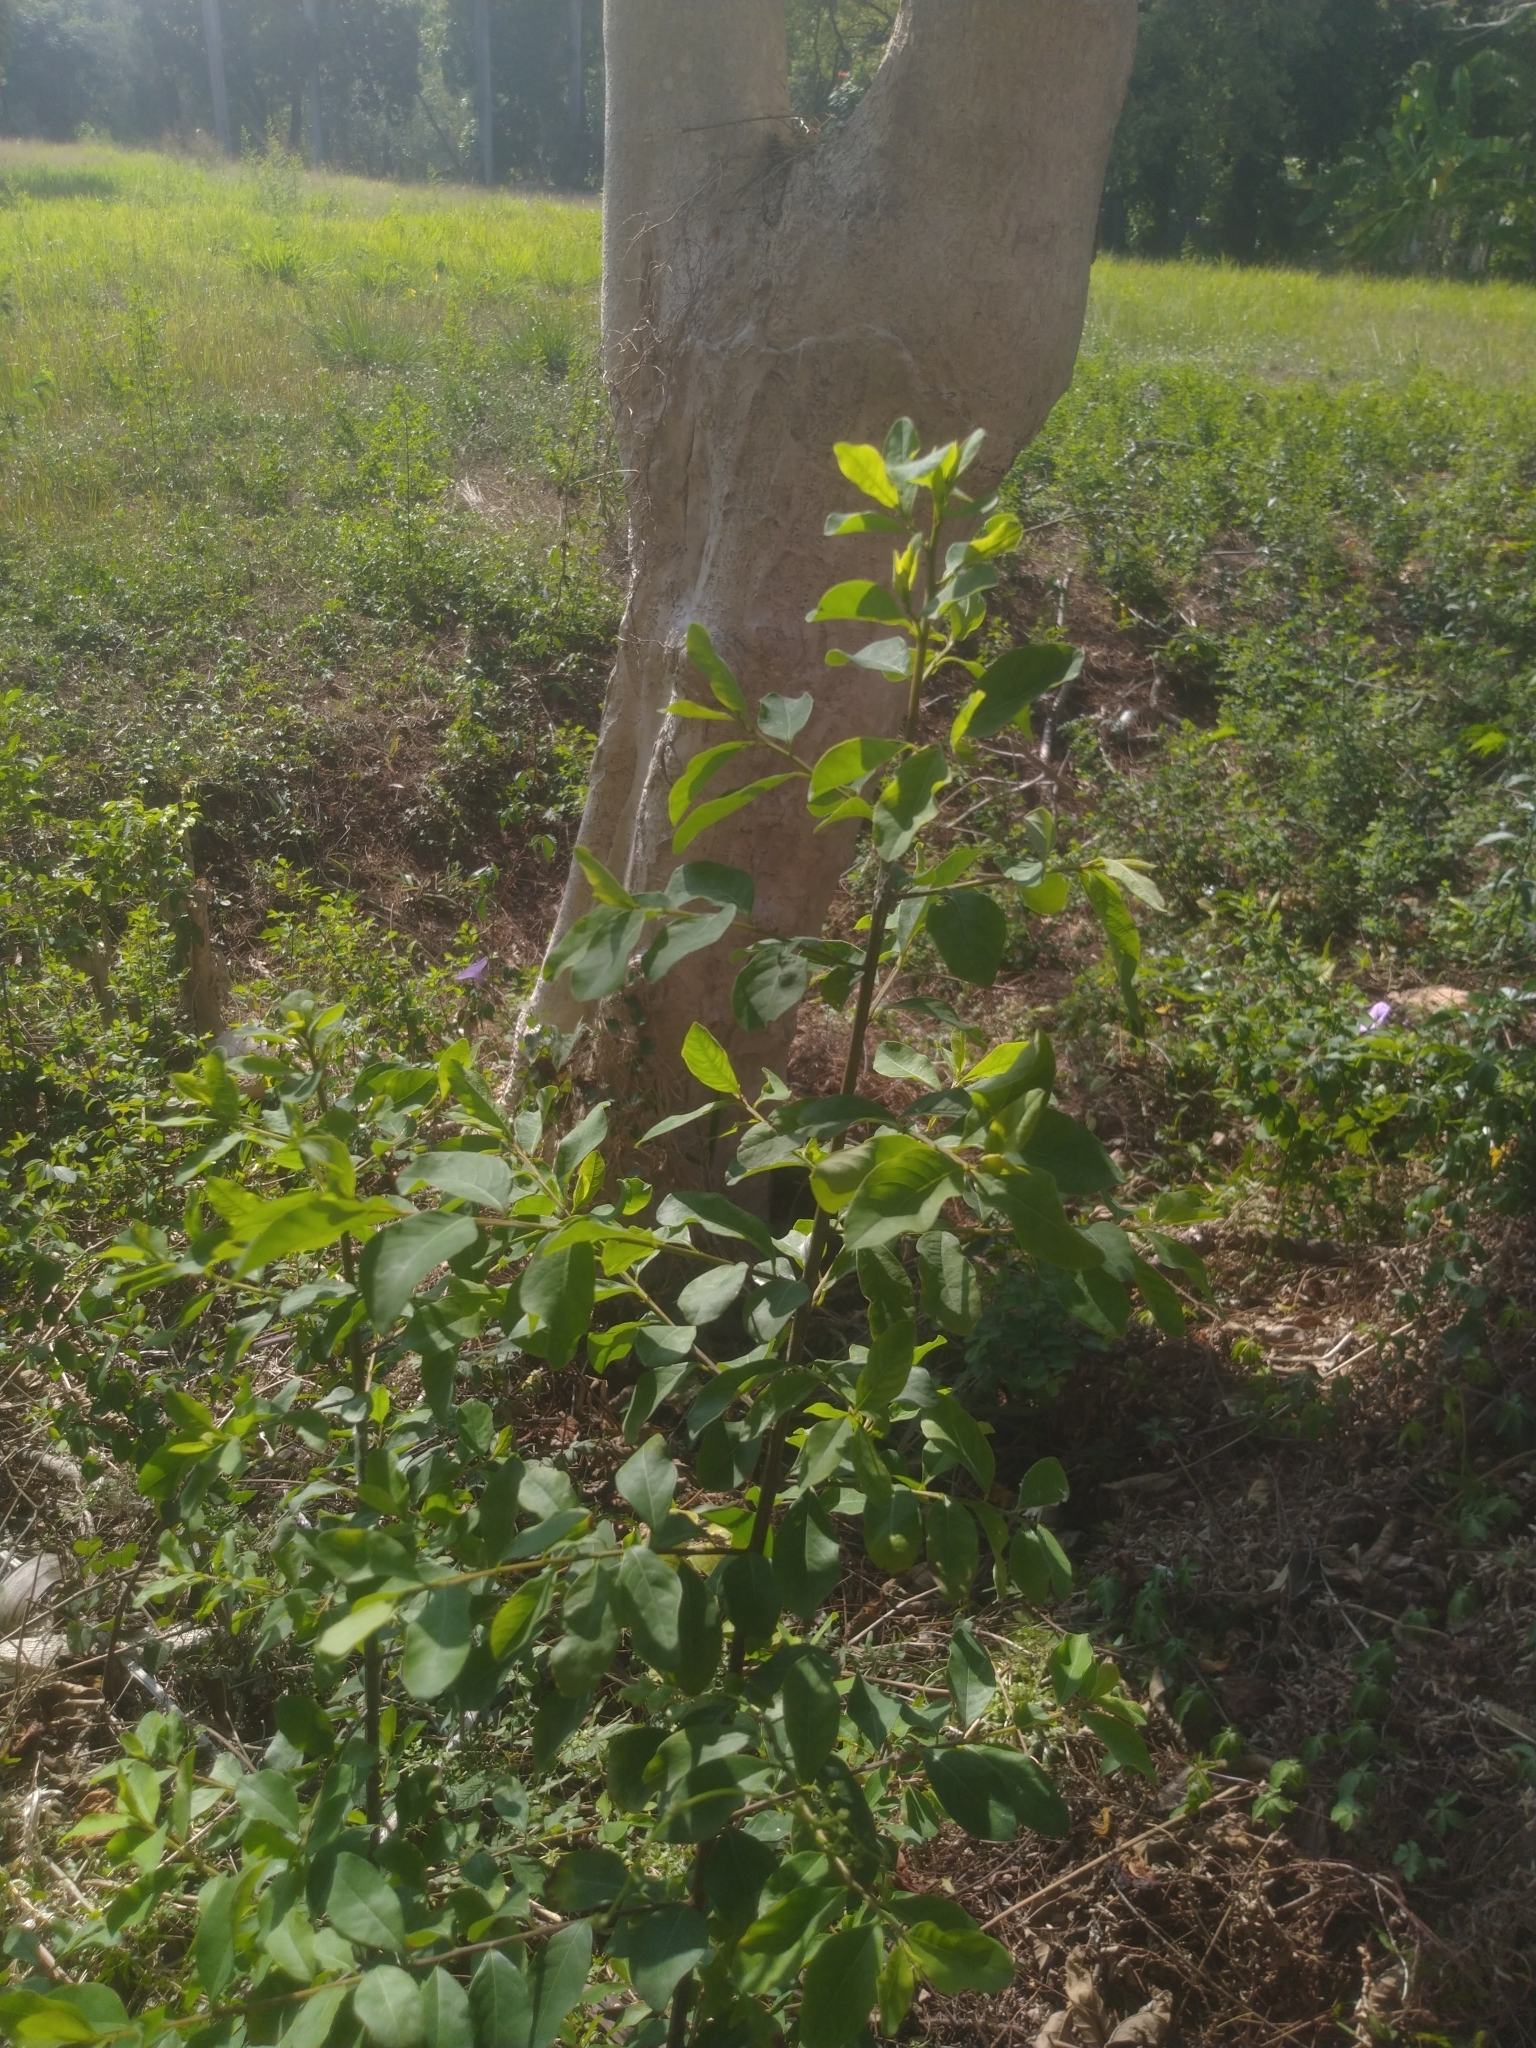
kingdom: Plantae
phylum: Tracheophyta
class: Magnoliopsida
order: Malpighiales
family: Phyllanthaceae
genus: Flueggea
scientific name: Flueggea virosa
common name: Common bushweed
